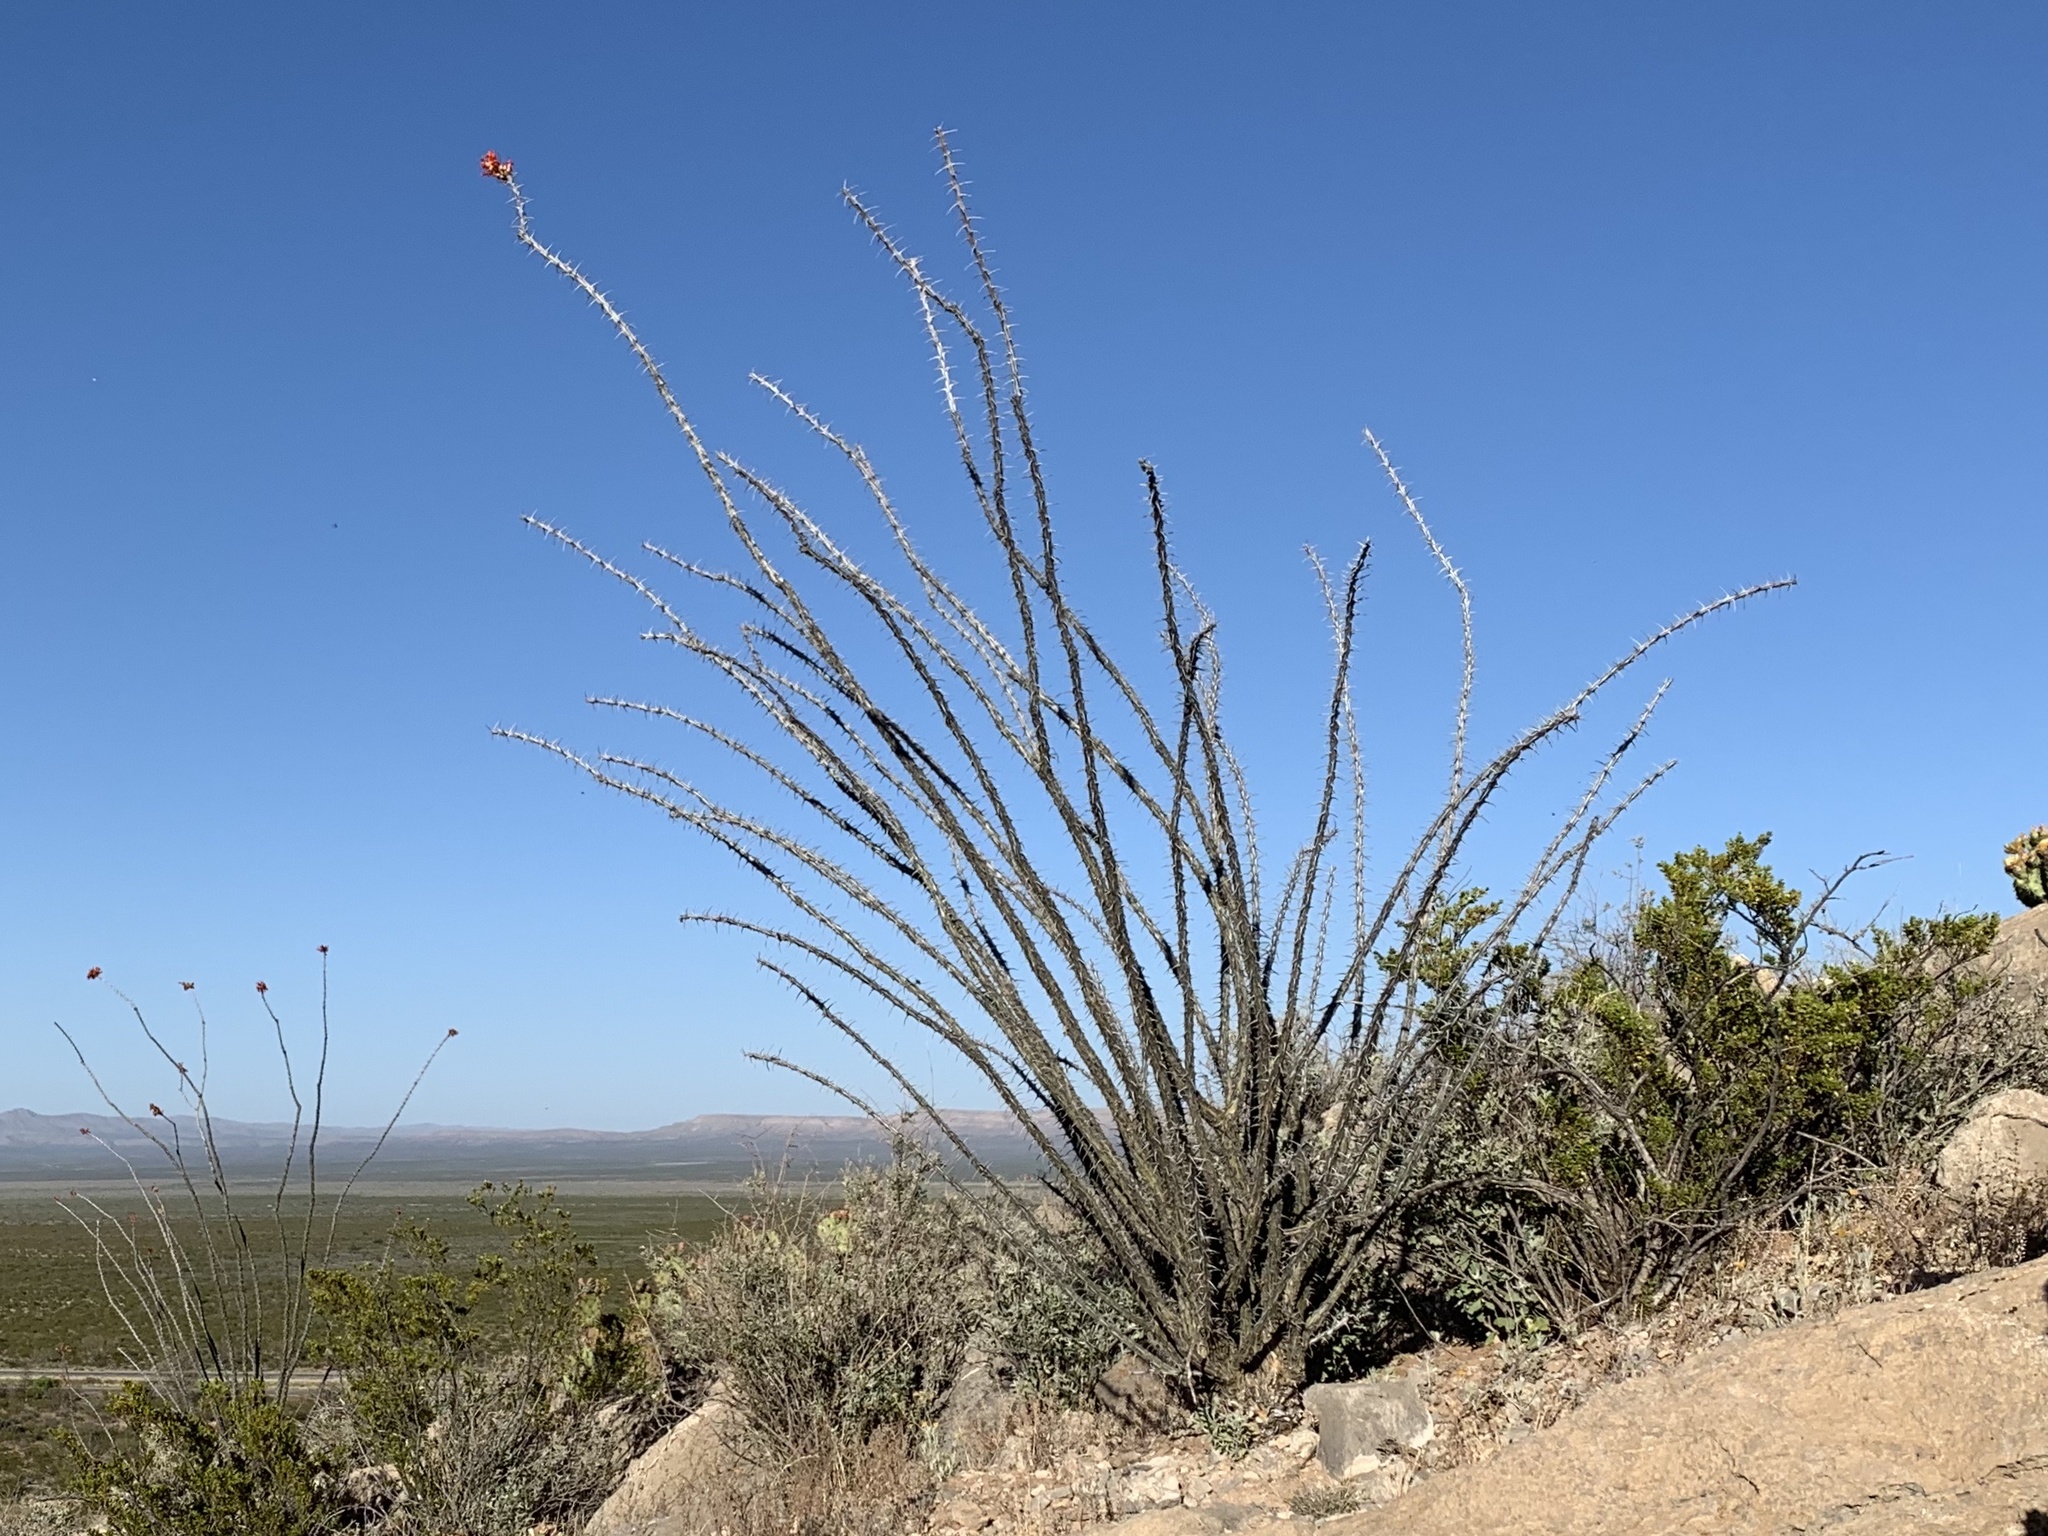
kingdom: Plantae
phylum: Tracheophyta
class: Magnoliopsida
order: Ericales
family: Fouquieriaceae
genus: Fouquieria
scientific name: Fouquieria splendens
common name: Vine-cactus
